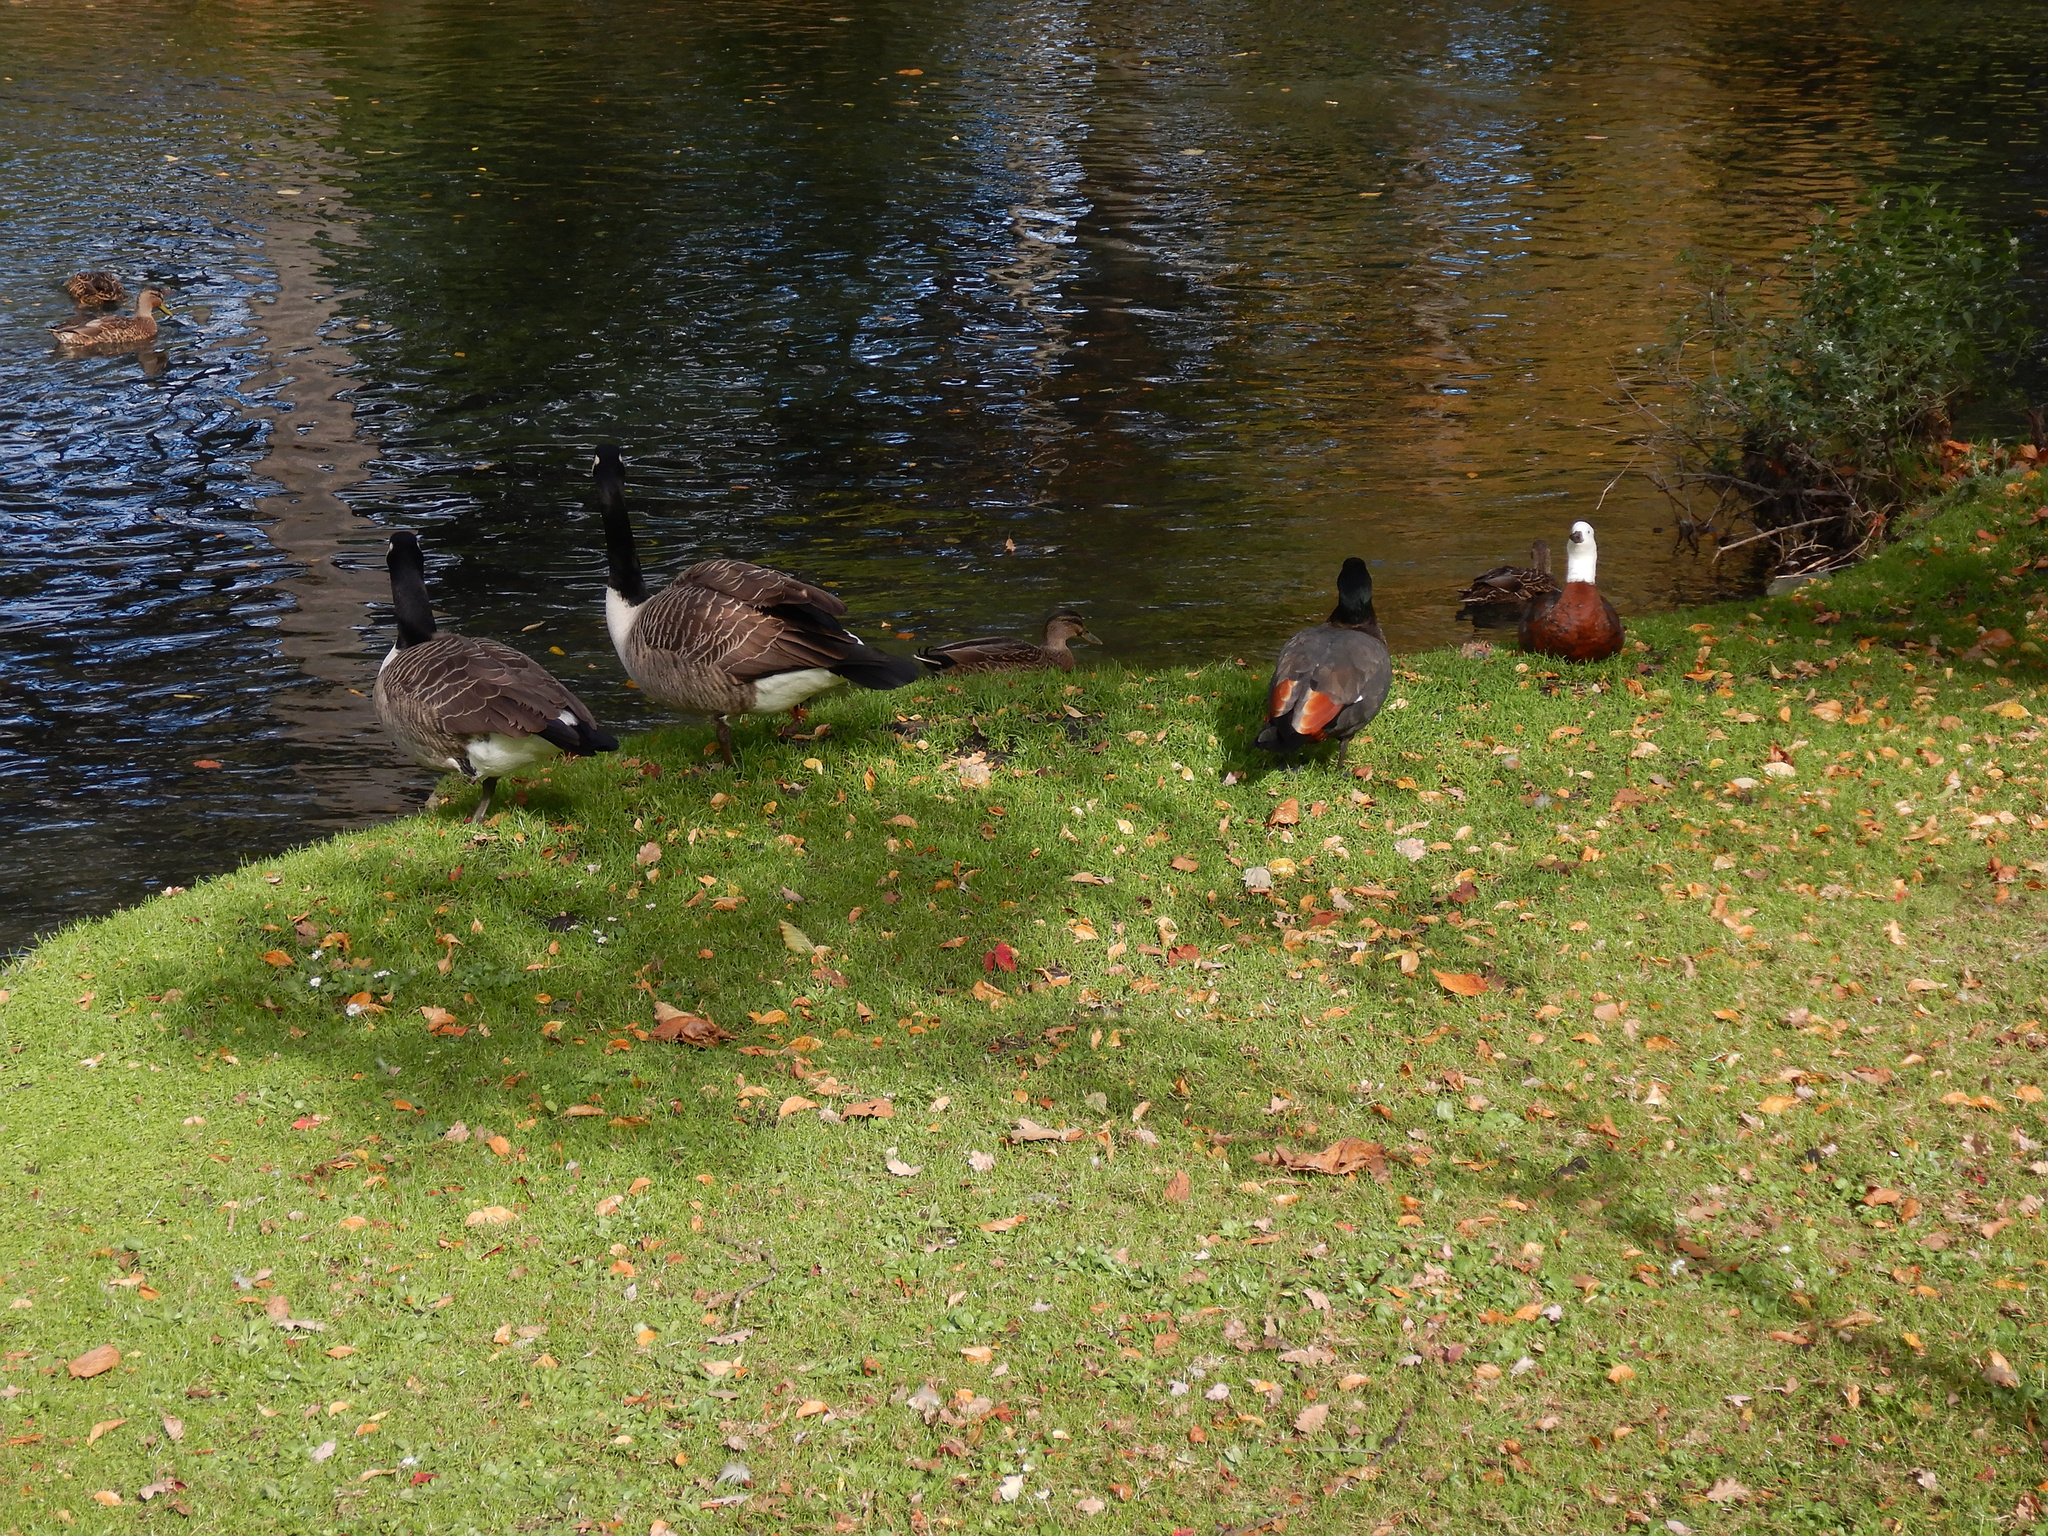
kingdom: Animalia
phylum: Chordata
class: Aves
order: Anseriformes
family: Anatidae
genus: Tadorna
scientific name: Tadorna variegata
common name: Paradise shelduck
